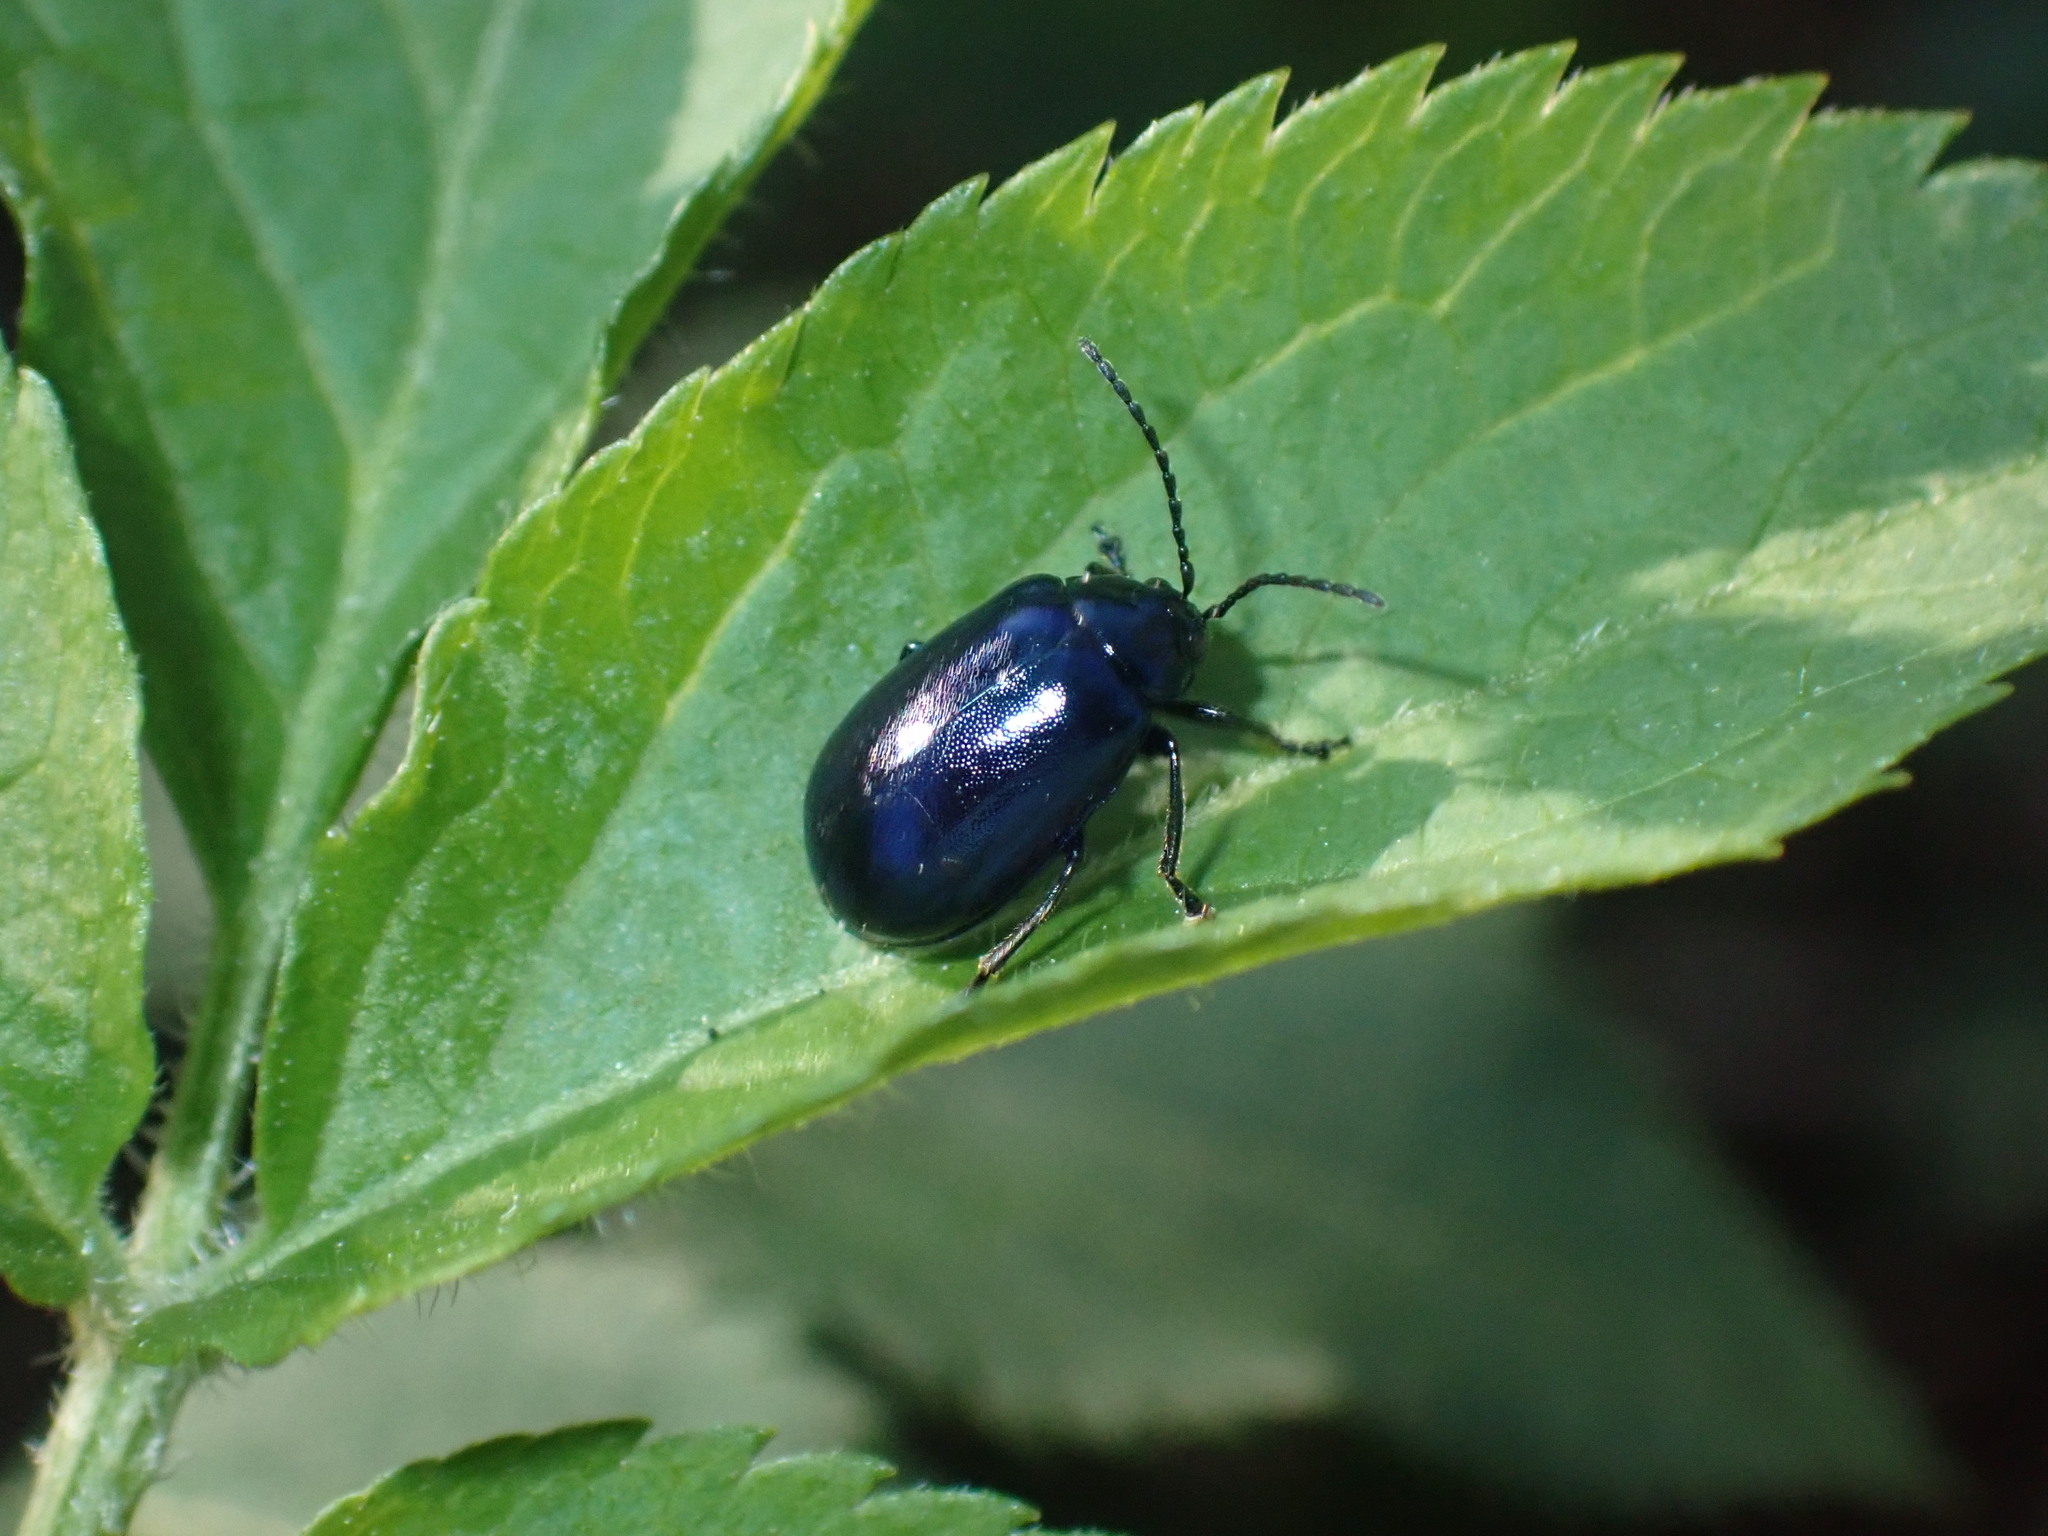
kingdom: Animalia
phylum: Arthropoda
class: Insecta
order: Coleoptera
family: Chrysomelidae
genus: Agelastica
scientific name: Agelastica alni
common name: Alder leaf beetle
